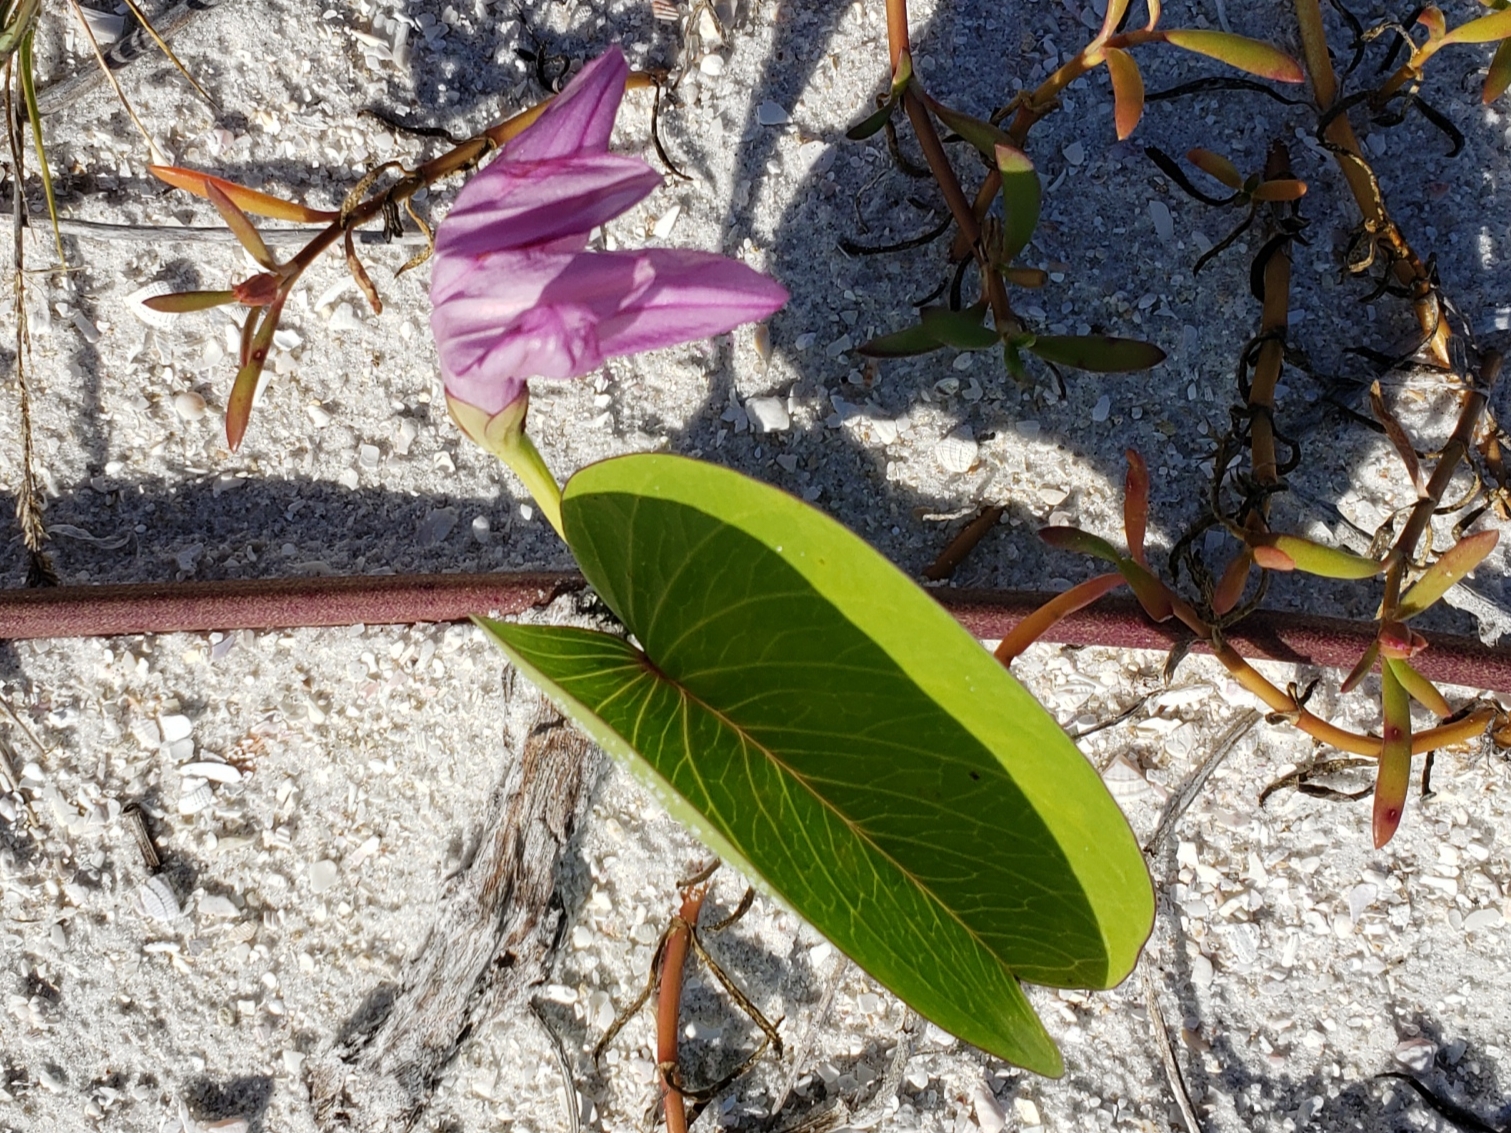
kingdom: Plantae
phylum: Tracheophyta
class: Magnoliopsida
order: Solanales
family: Convolvulaceae
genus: Ipomoea
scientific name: Ipomoea pes-caprae
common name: Beach morning glory
